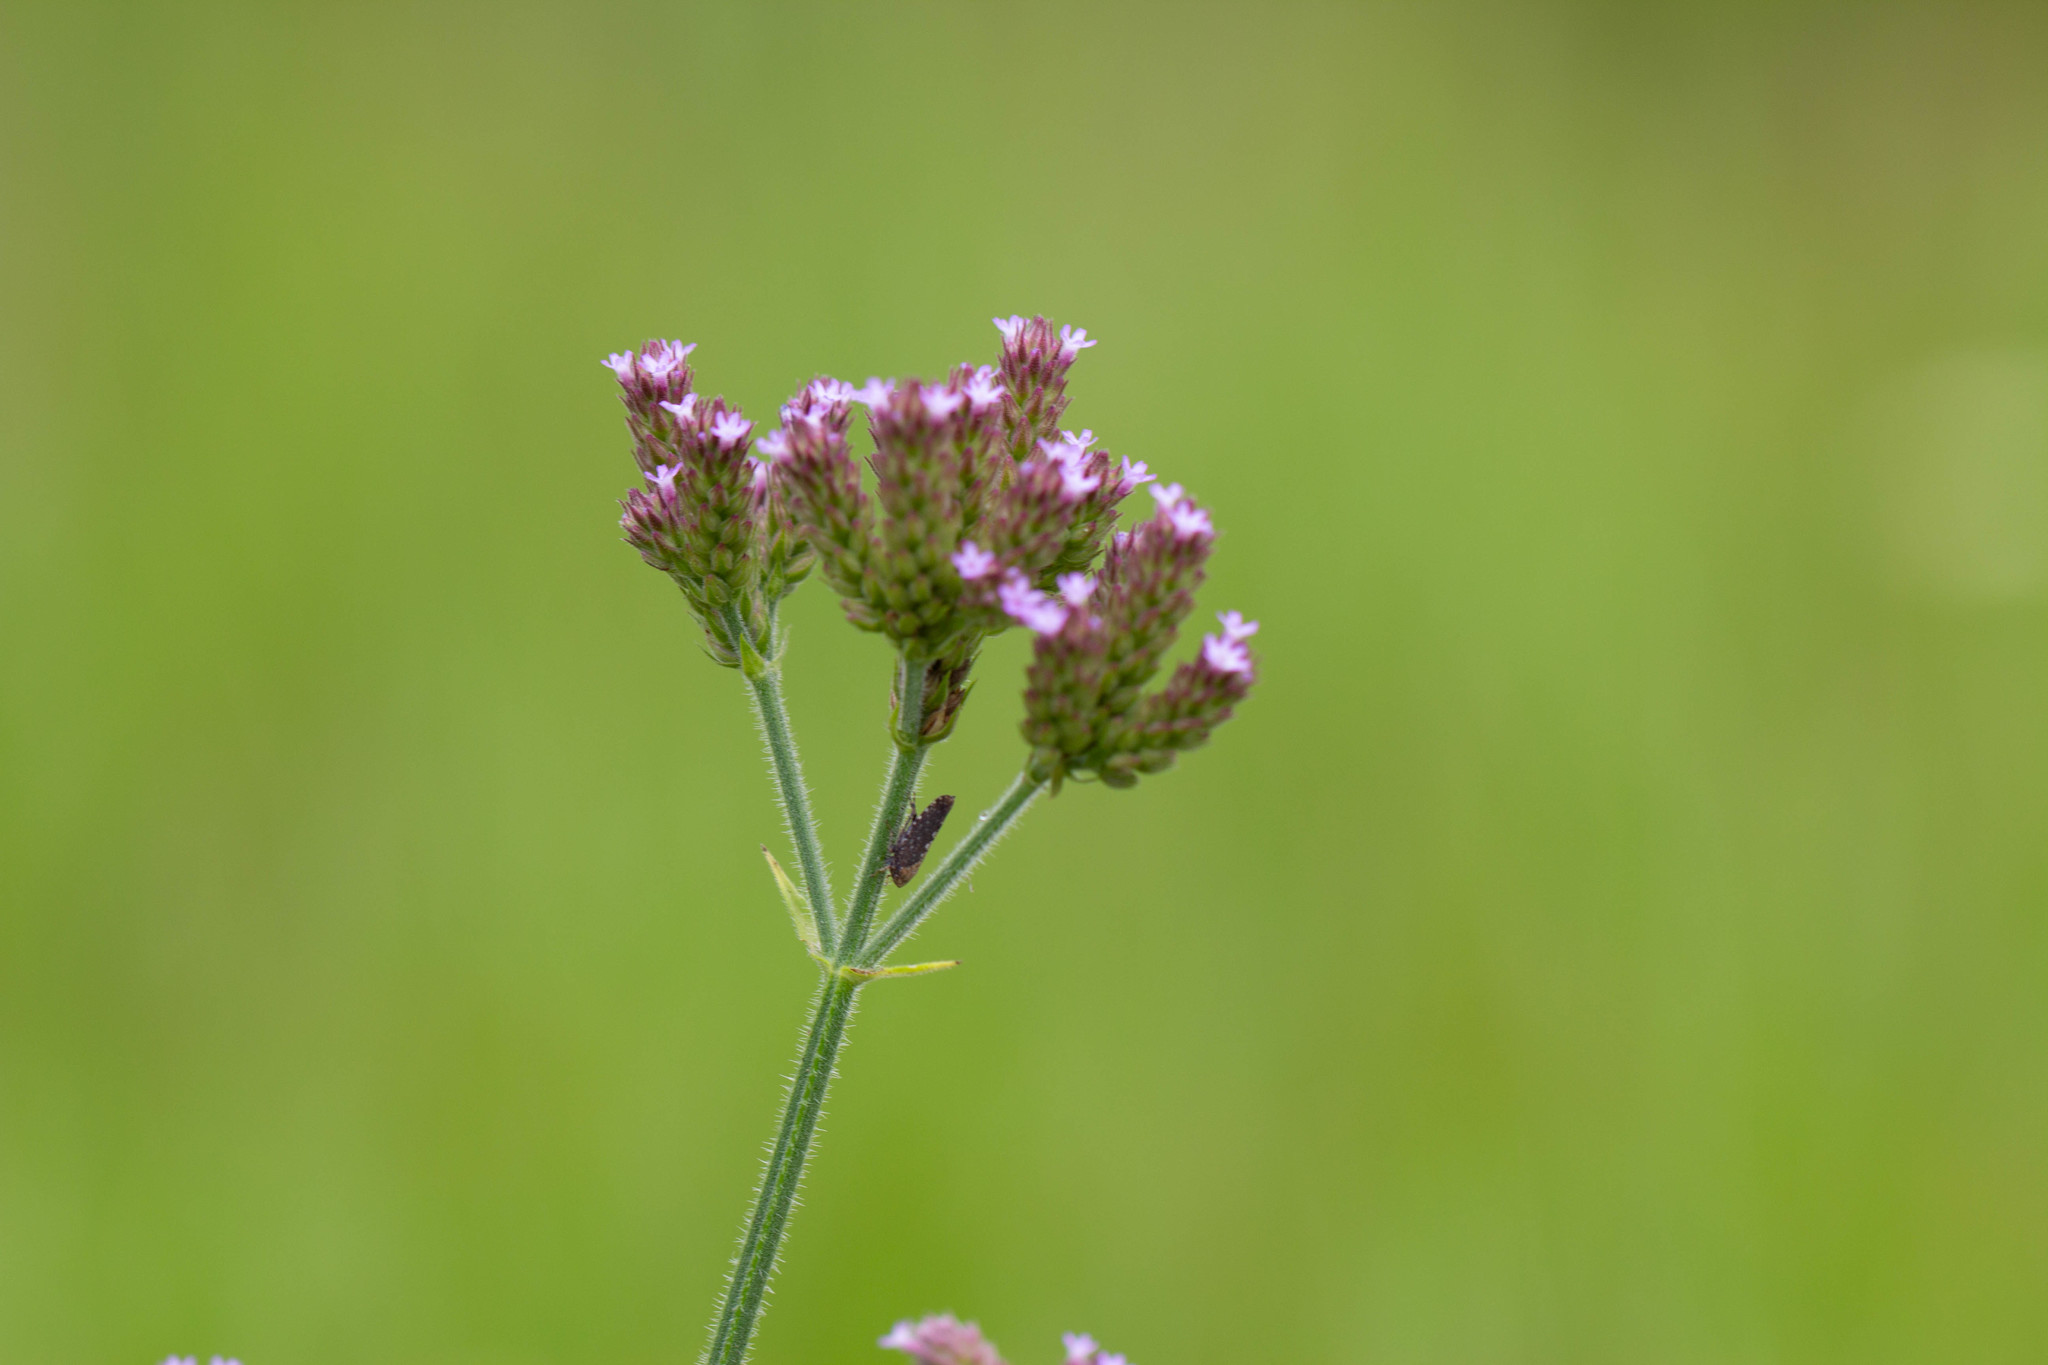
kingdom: Plantae
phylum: Tracheophyta
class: Magnoliopsida
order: Lamiales
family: Verbenaceae
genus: Verbena
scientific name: Verbena incompta
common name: Purpletop vervain
